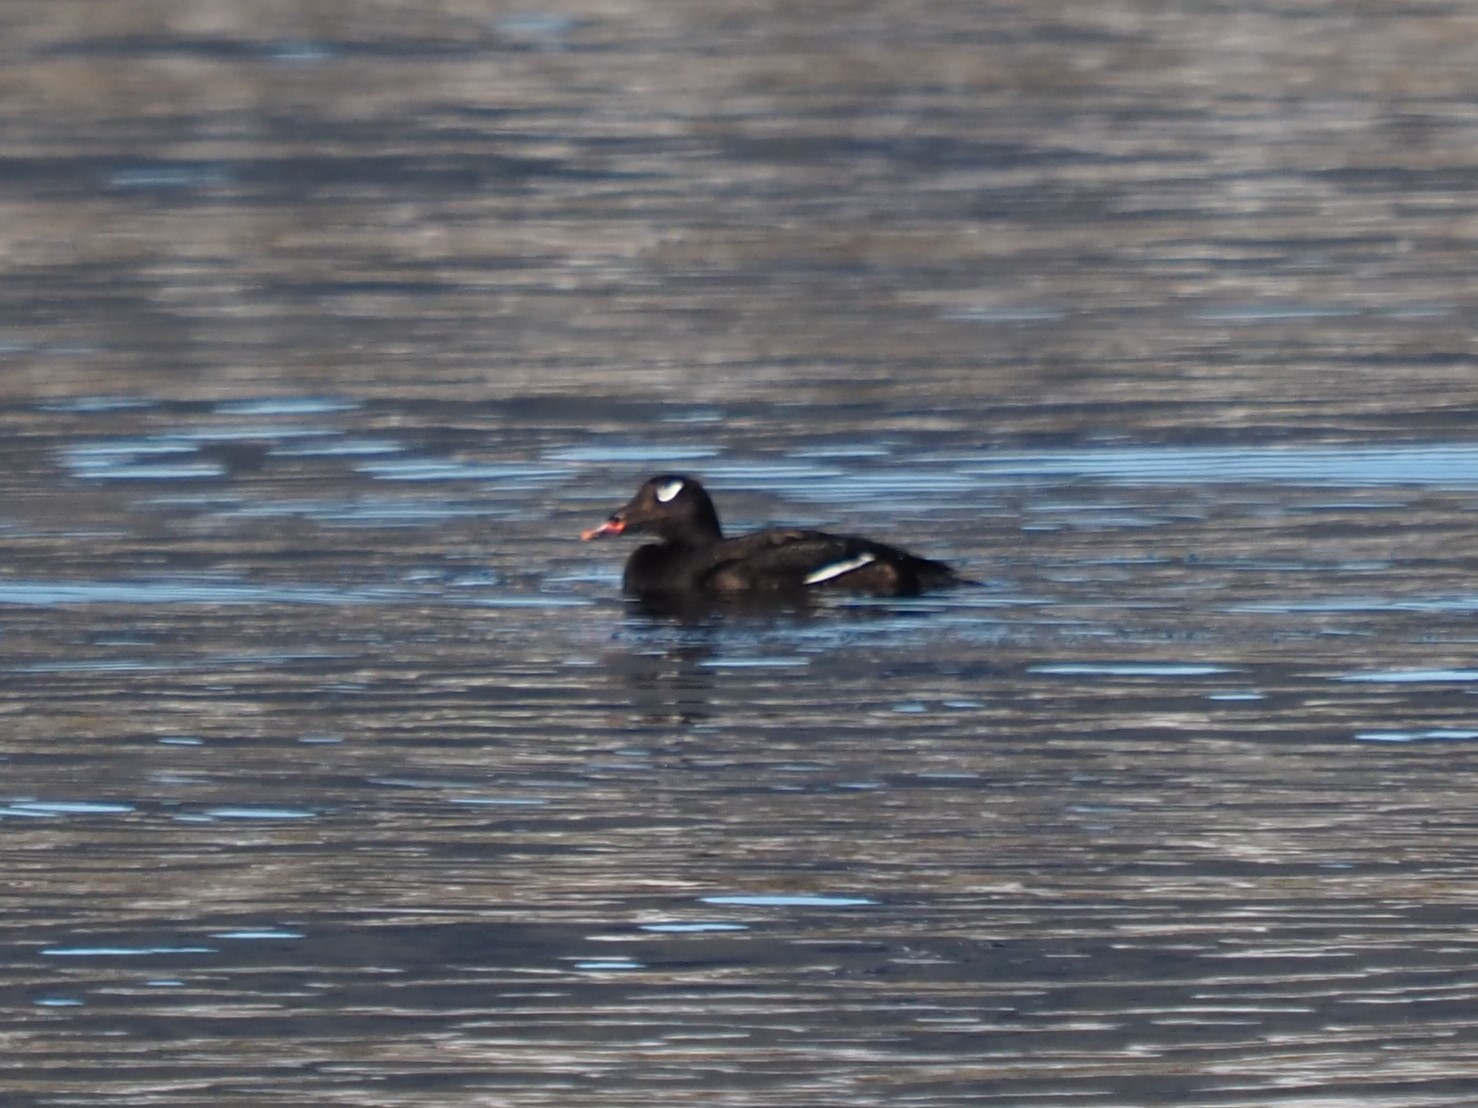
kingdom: Animalia
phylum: Chordata
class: Aves
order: Anseriformes
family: Anatidae
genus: Melanitta
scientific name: Melanitta deglandi
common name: White-winged scoter
